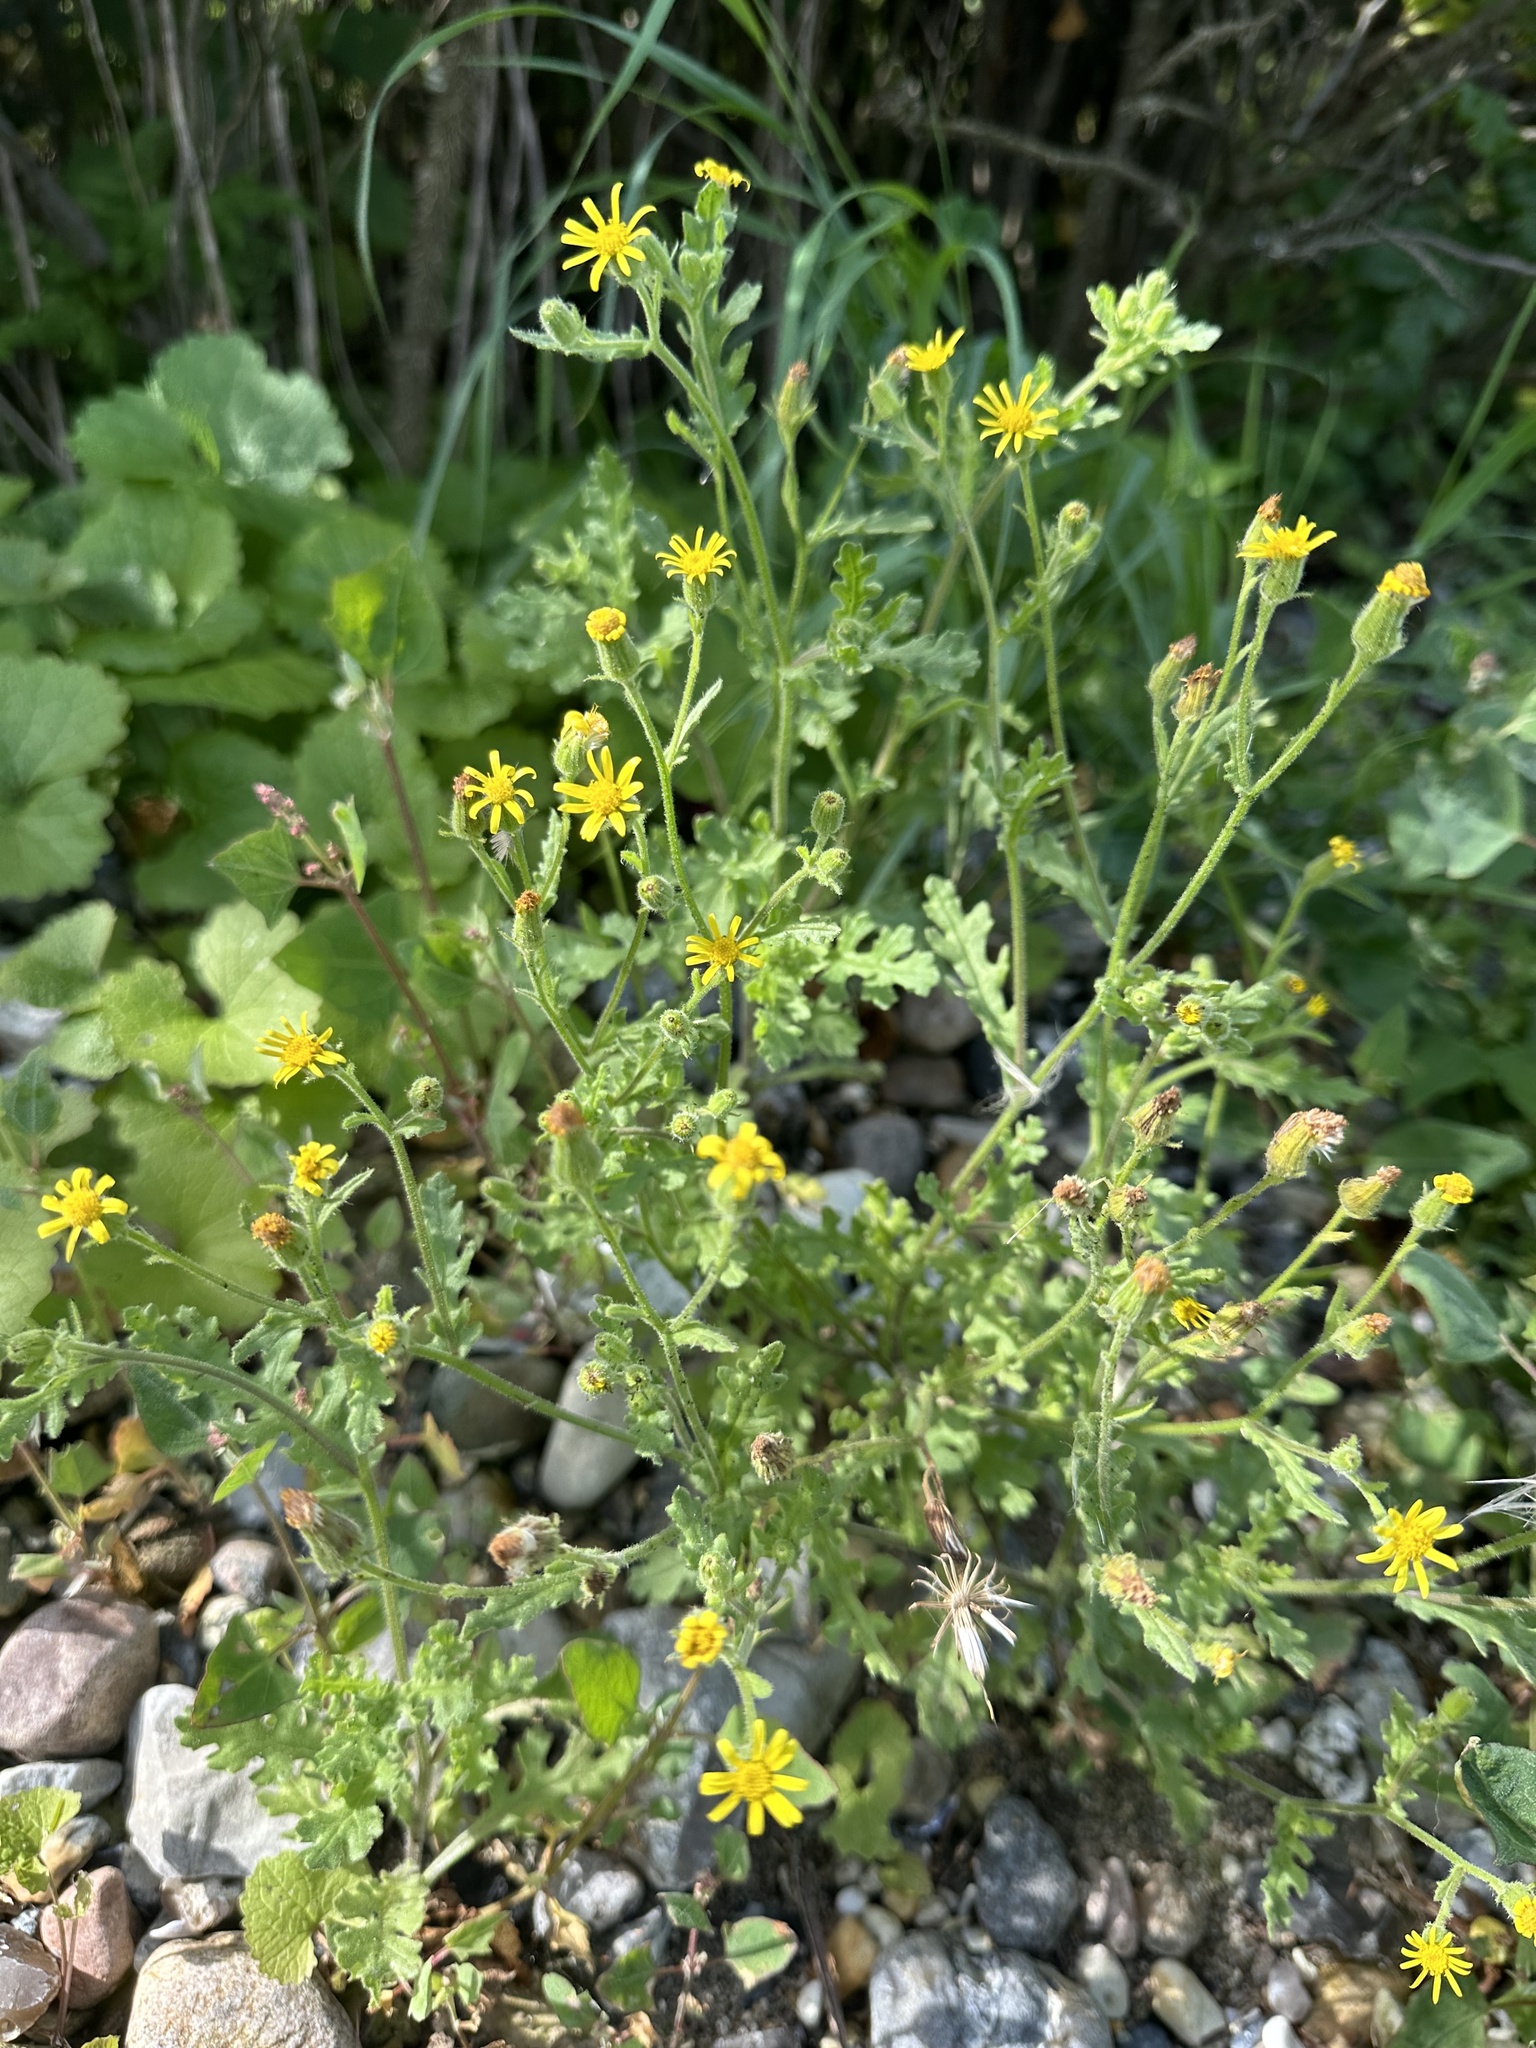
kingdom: Plantae
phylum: Tracheophyta
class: Magnoliopsida
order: Asterales
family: Asteraceae
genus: Senecio
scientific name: Senecio viscosus
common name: Sticky groundsel
